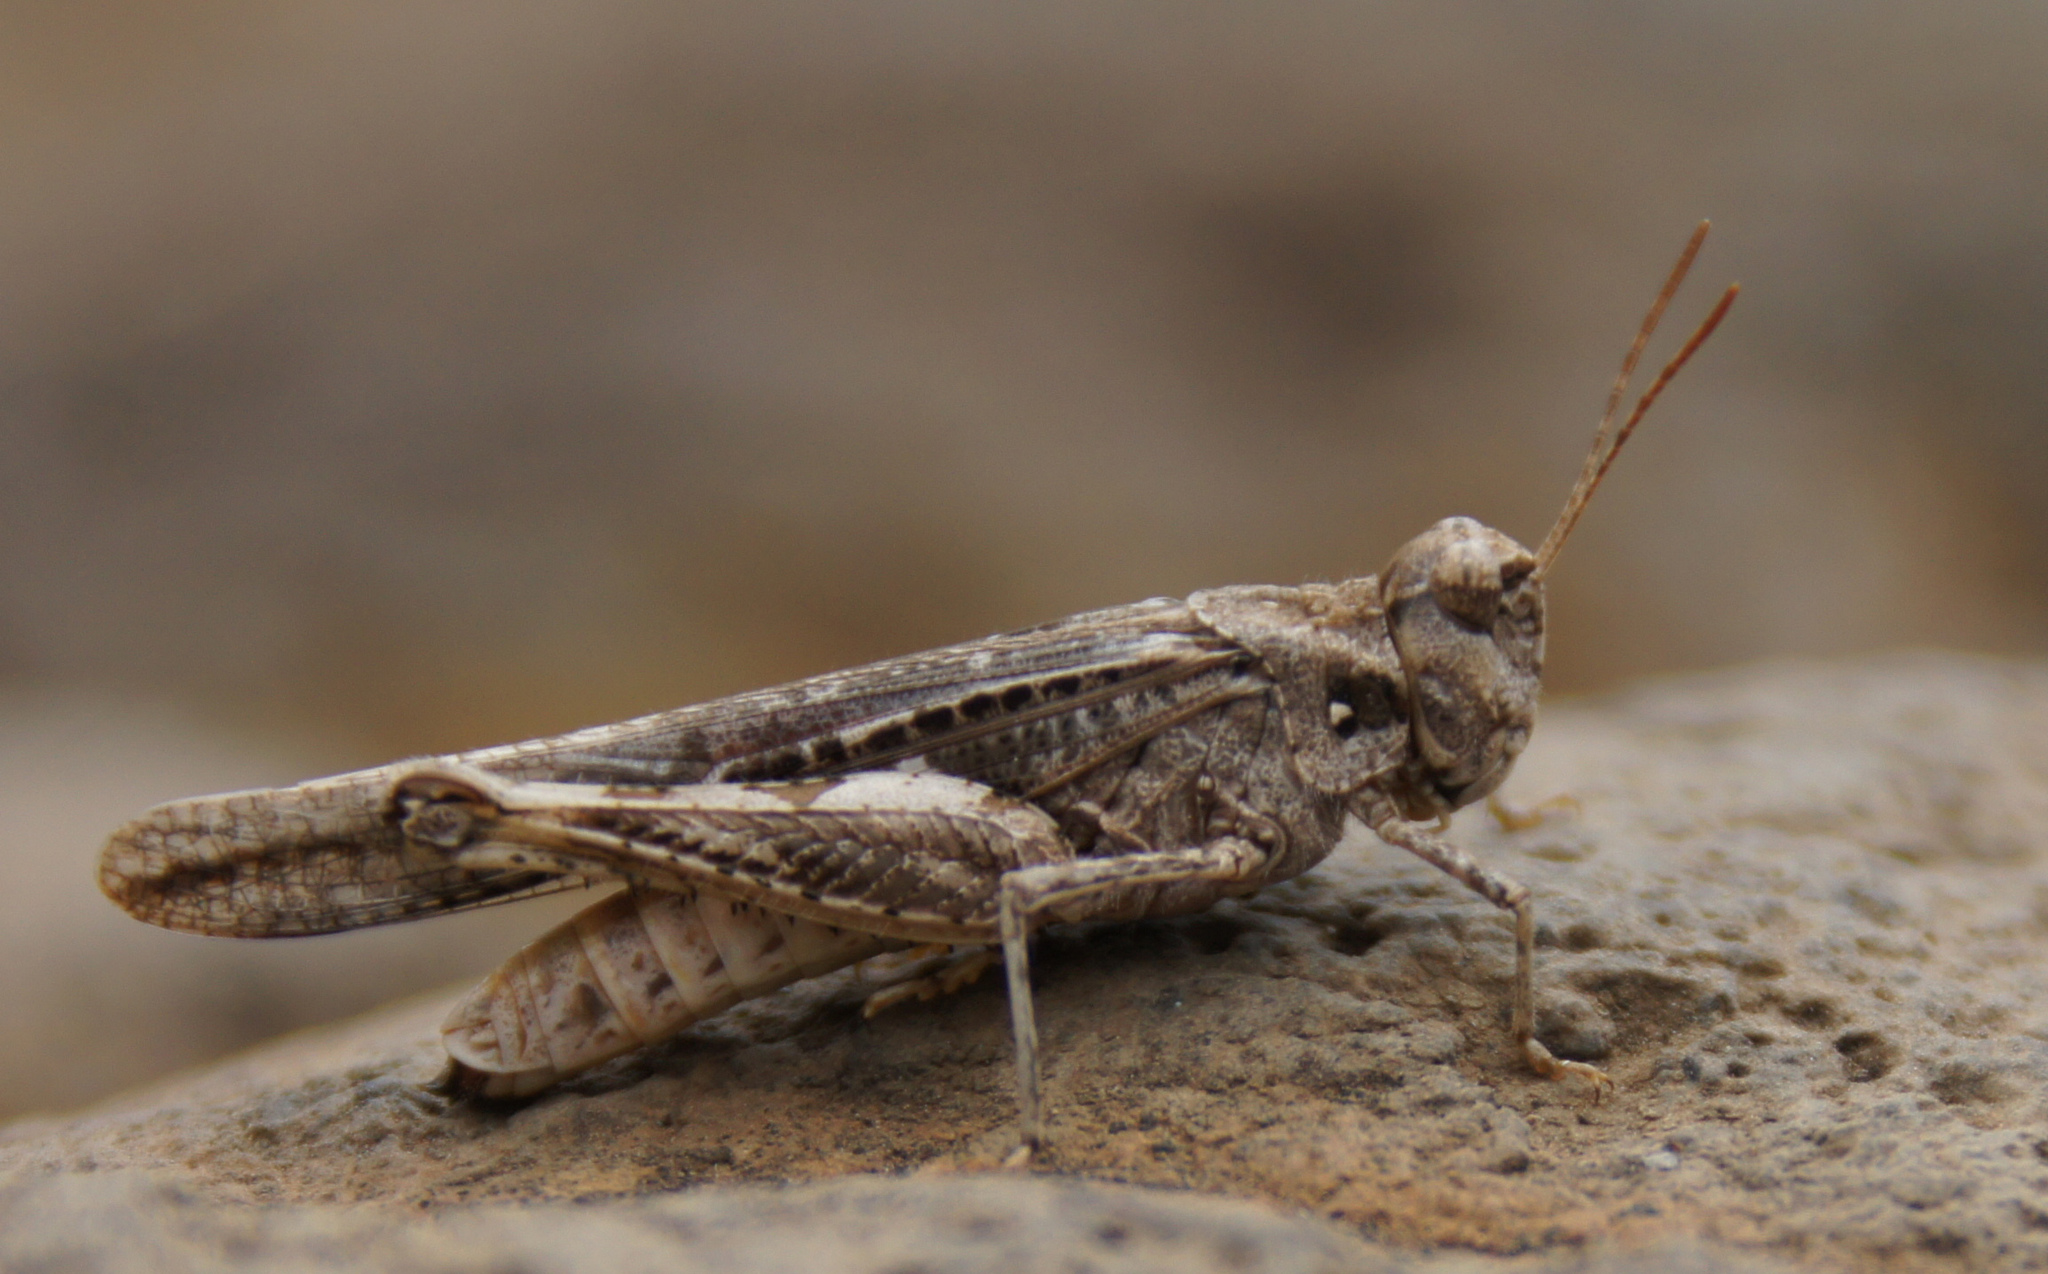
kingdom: Animalia
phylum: Arthropoda
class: Insecta
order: Orthoptera
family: Acrididae
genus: Acrotylus
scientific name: Acrotylus insubricus
